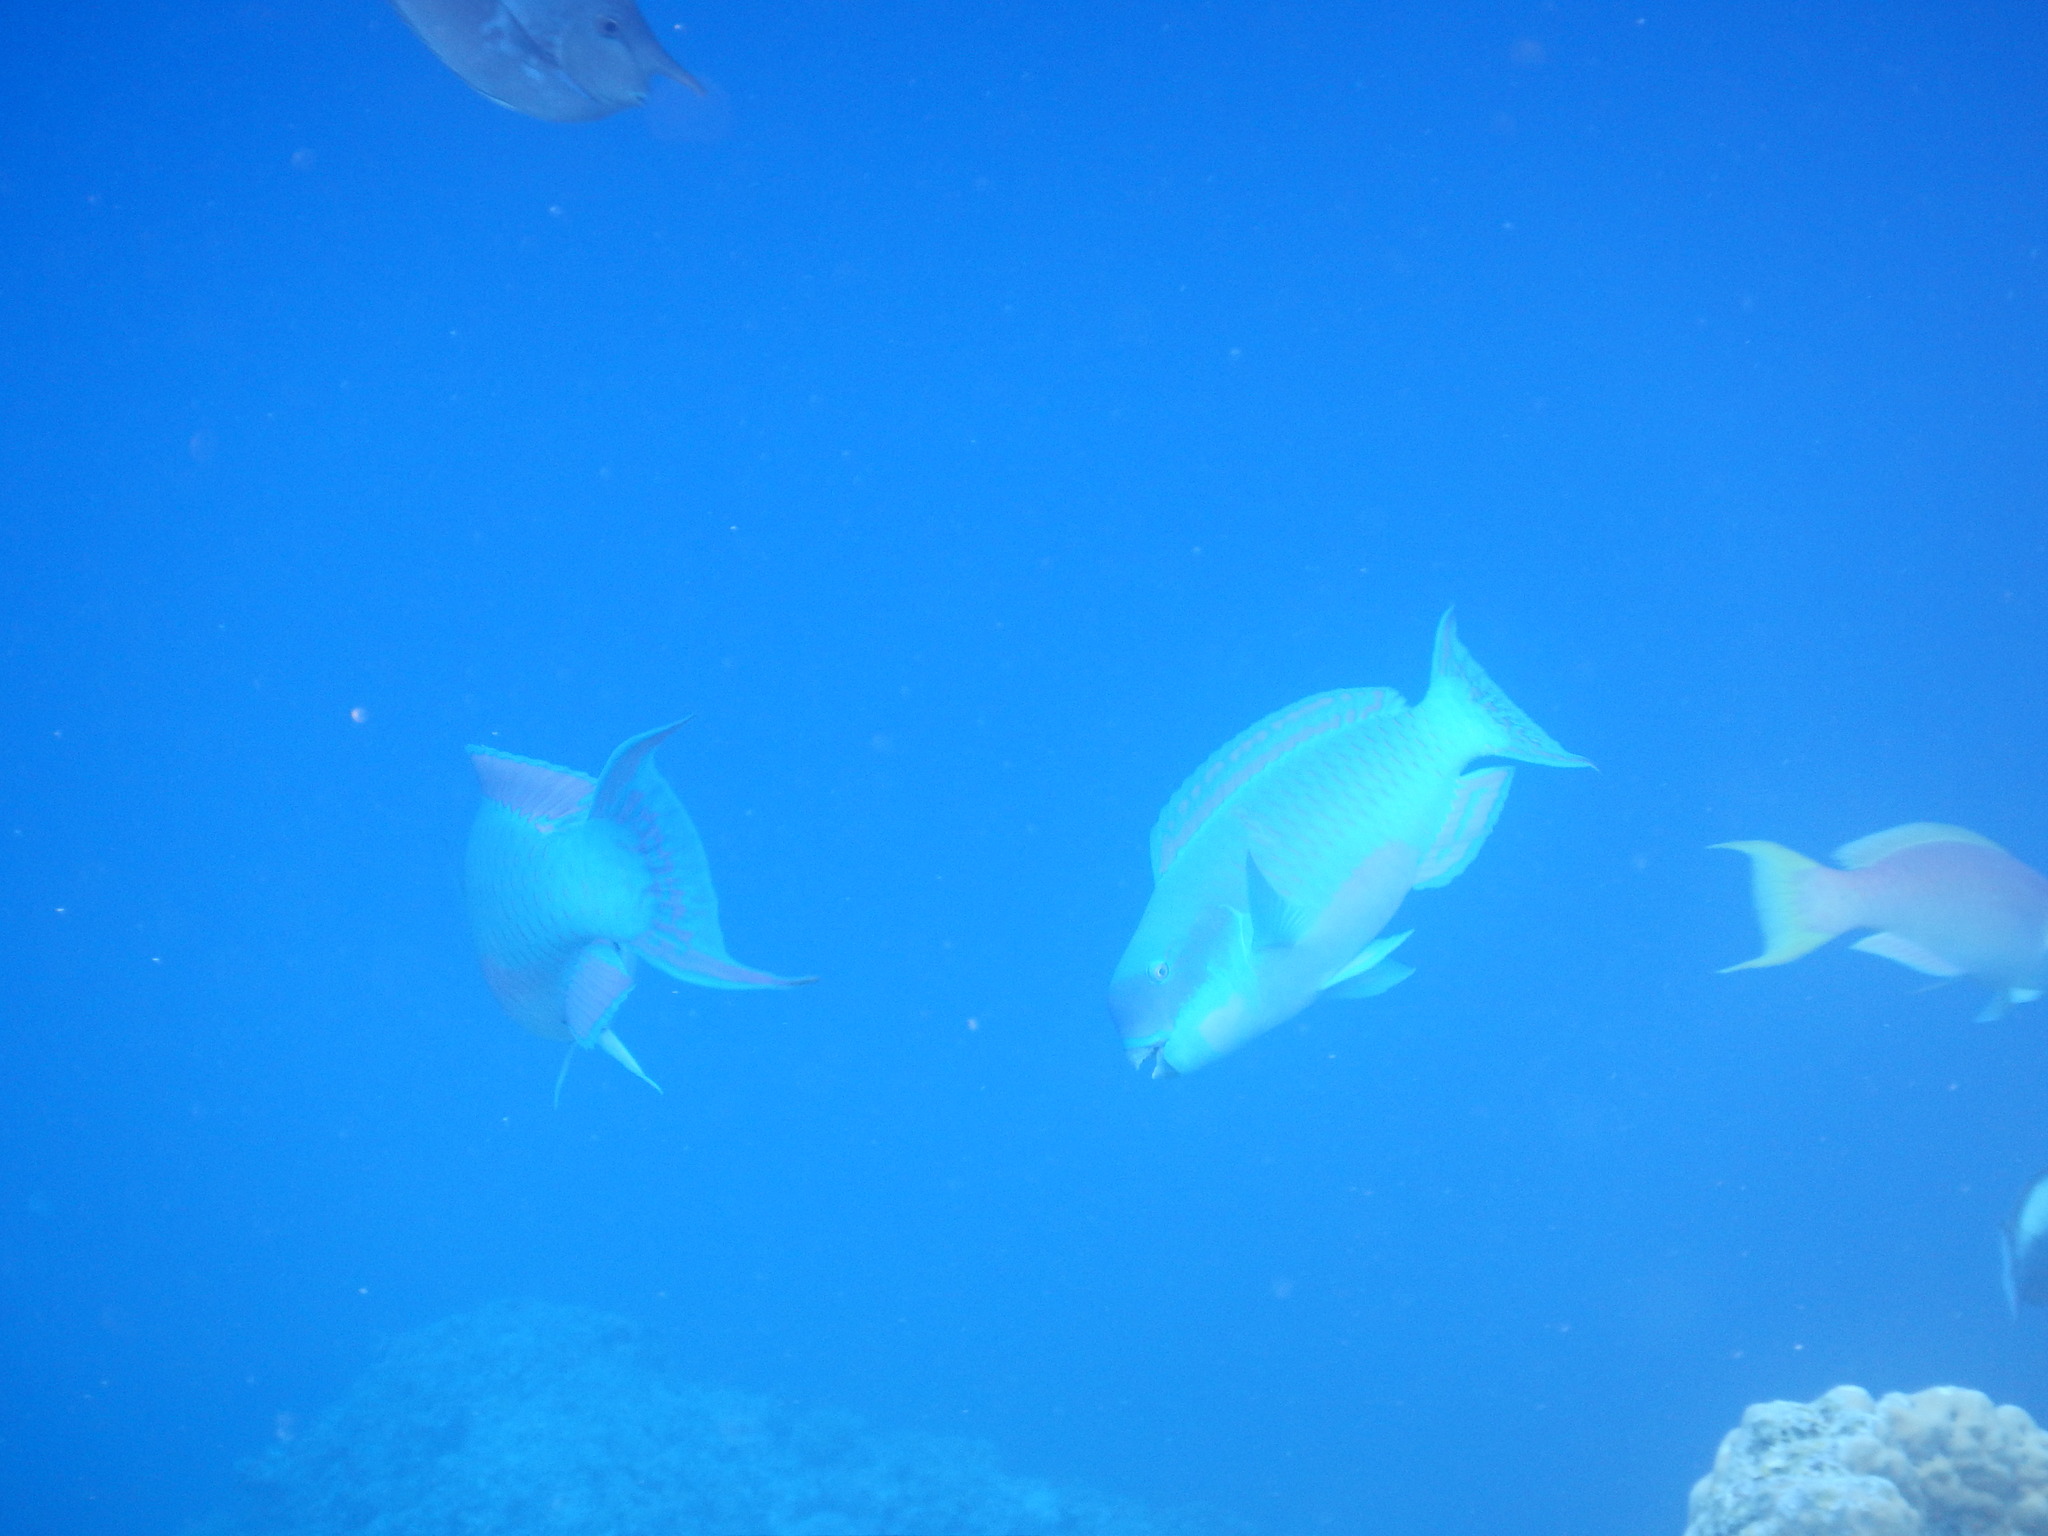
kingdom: Animalia
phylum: Chordata
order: Perciformes
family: Scaridae
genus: Chlorurus
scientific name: Chlorurus microrhinos
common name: Steephead parrotfish
